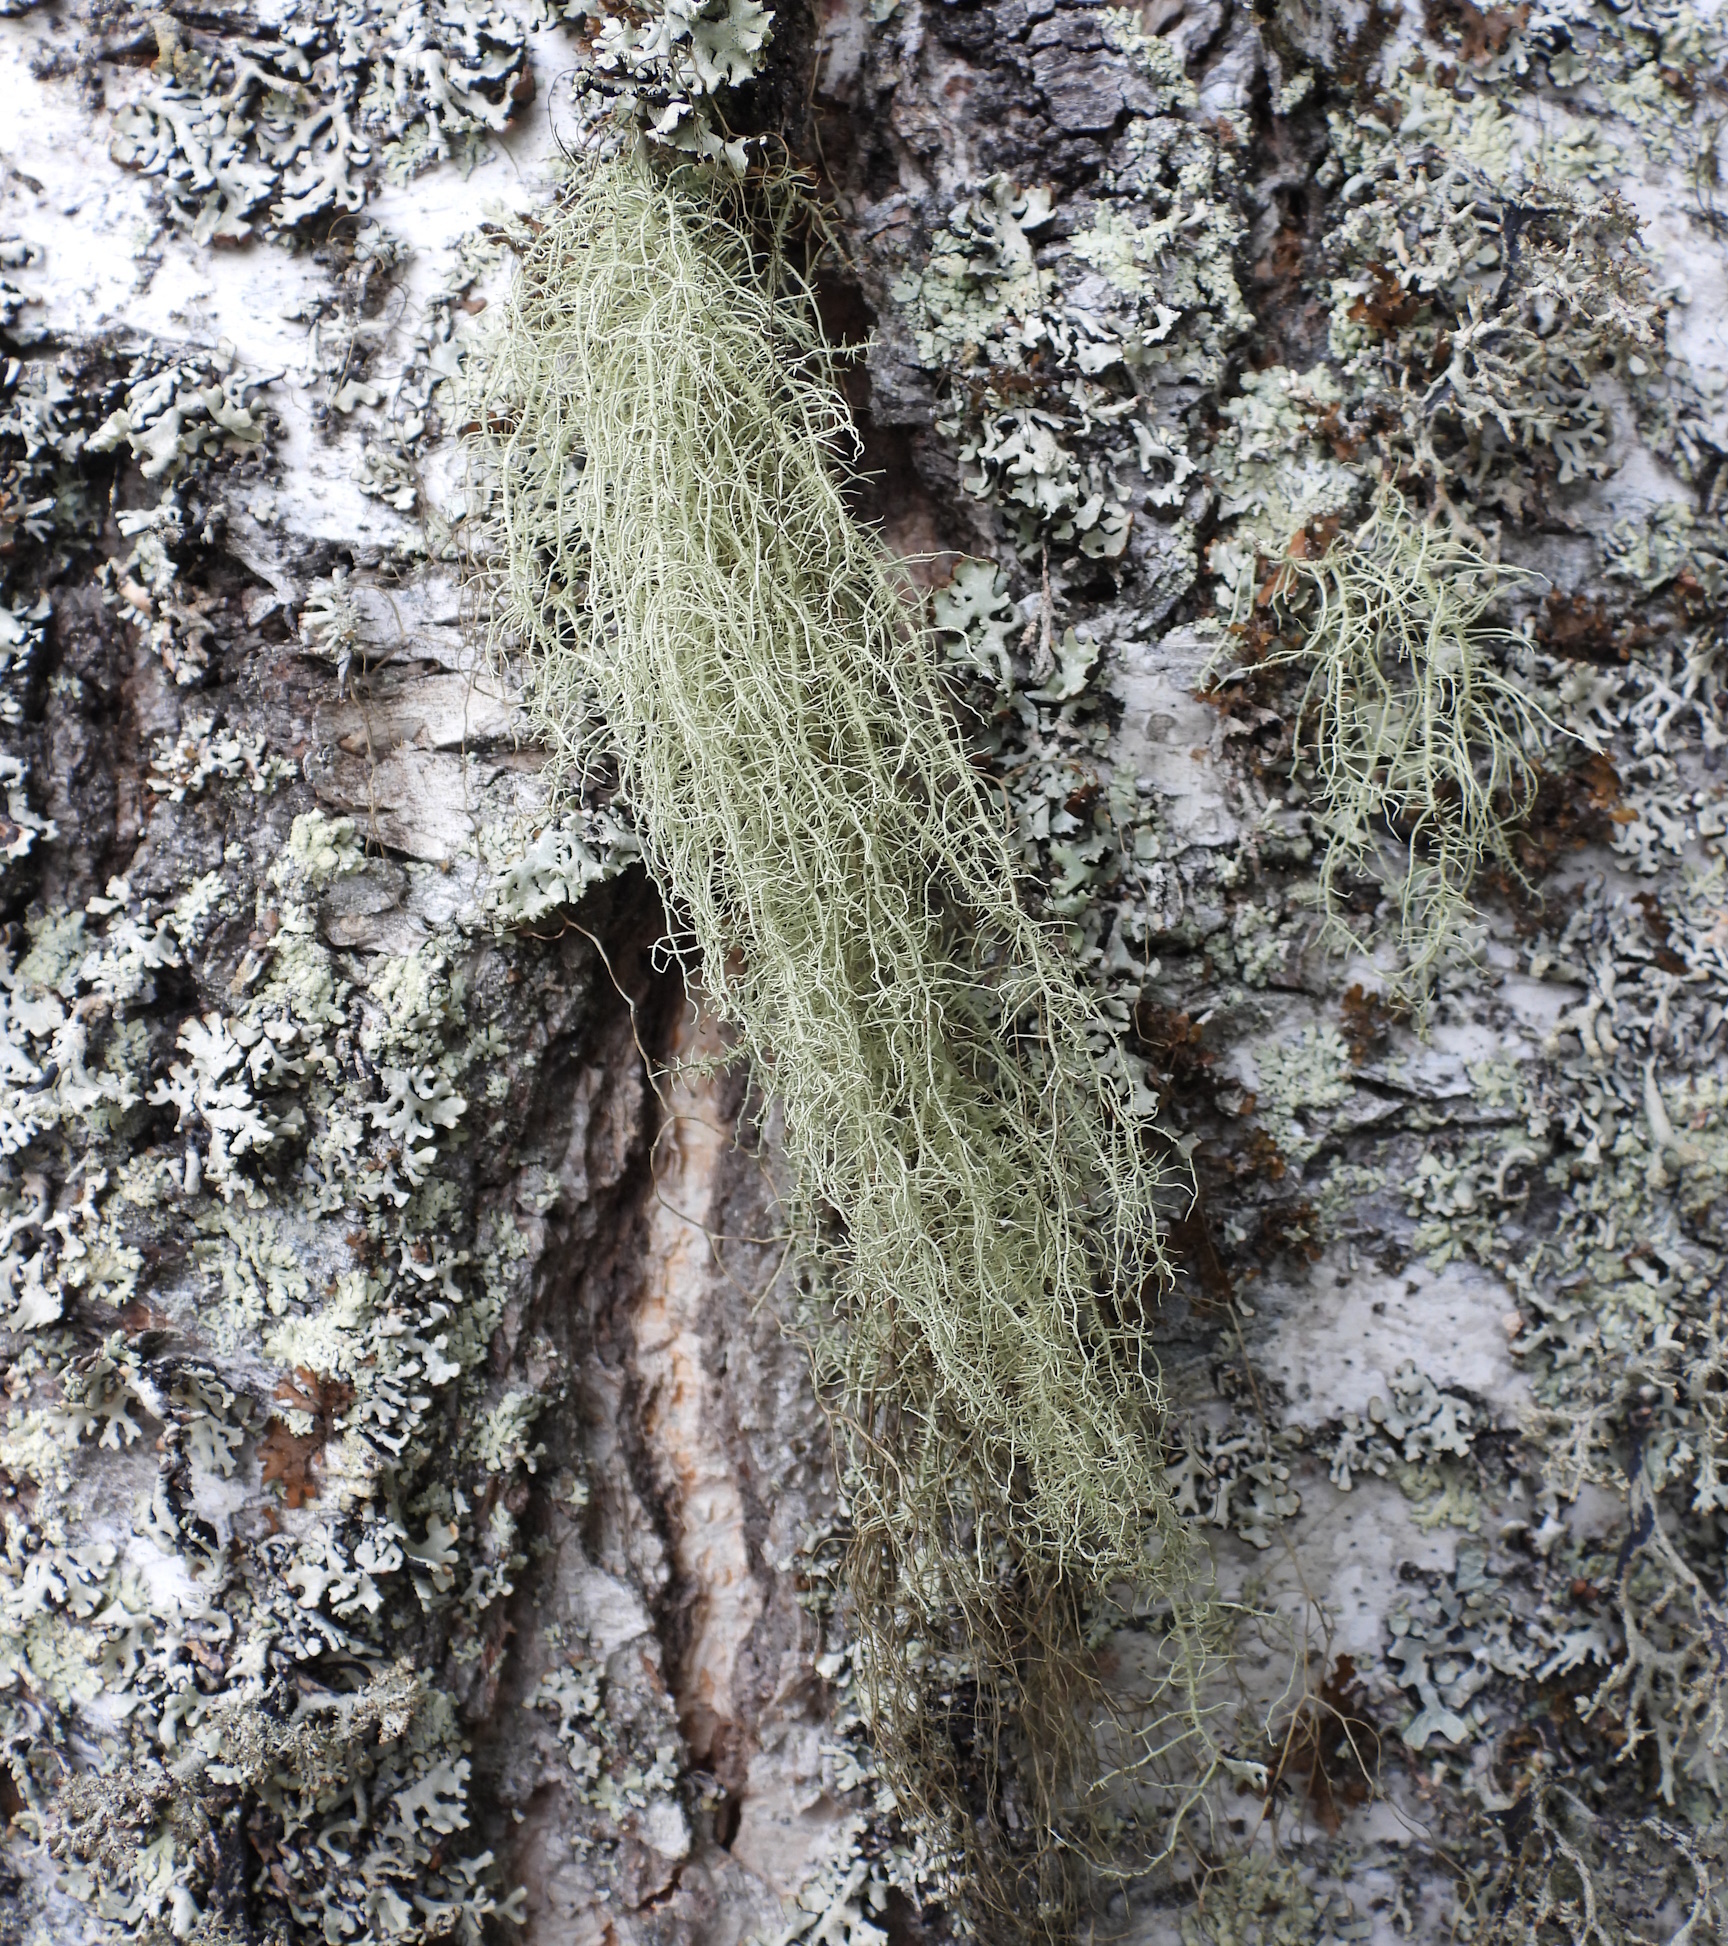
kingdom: Fungi
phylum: Ascomycota
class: Lecanoromycetes
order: Lecanorales
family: Parmeliaceae
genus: Usnea
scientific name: Usnea dasopoga
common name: Fishbone beard lichen
